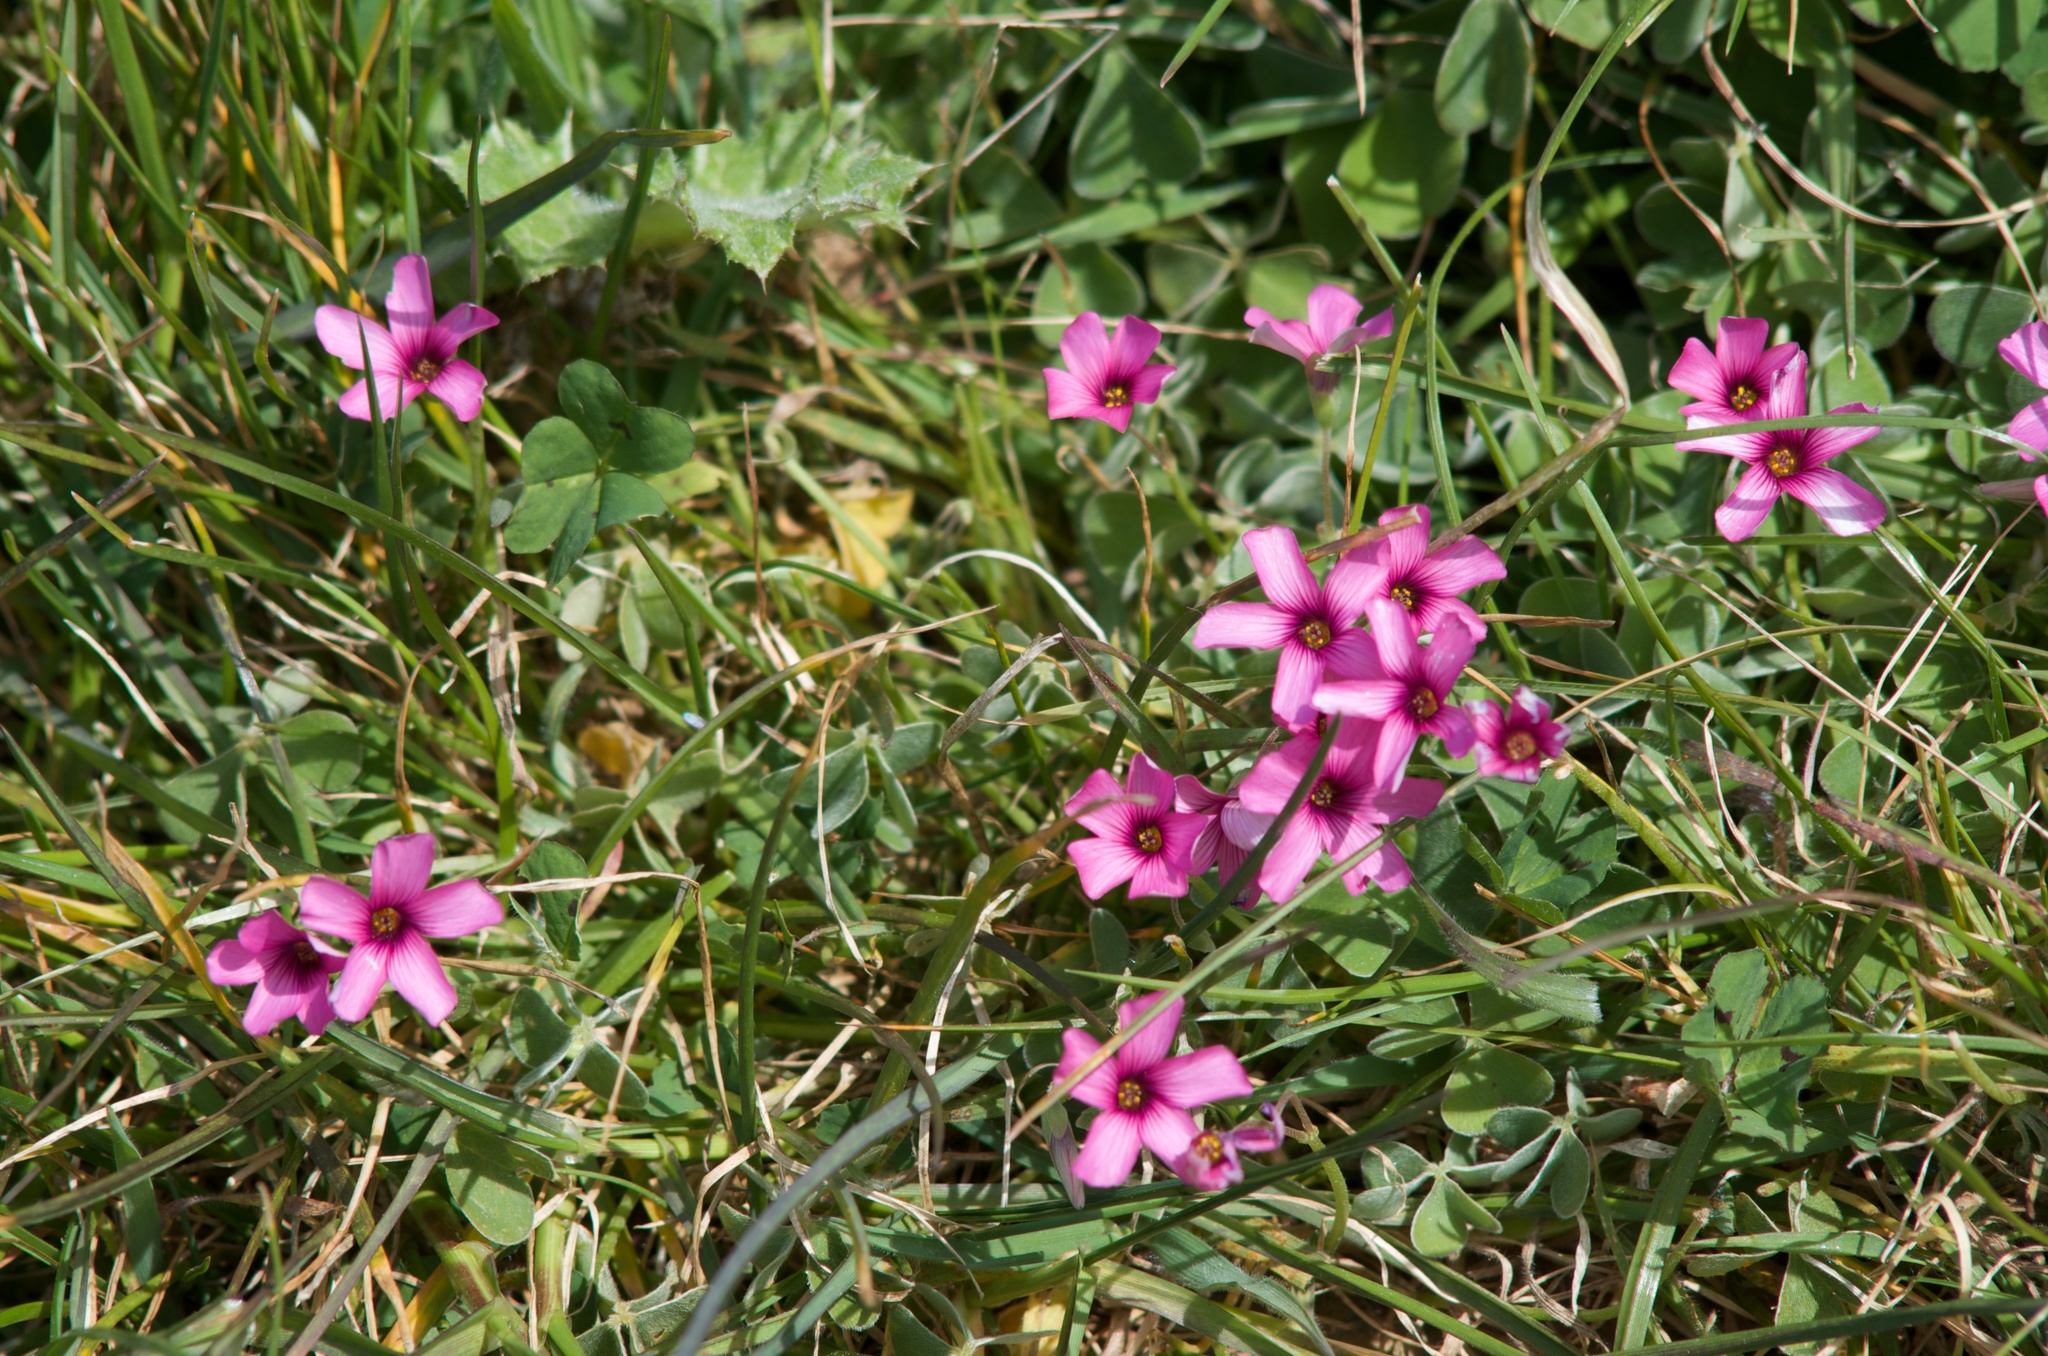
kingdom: Plantae
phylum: Tracheophyta
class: Magnoliopsida
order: Oxalidales
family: Oxalidaceae
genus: Oxalis
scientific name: Oxalis articulata
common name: Pink-sorrel
